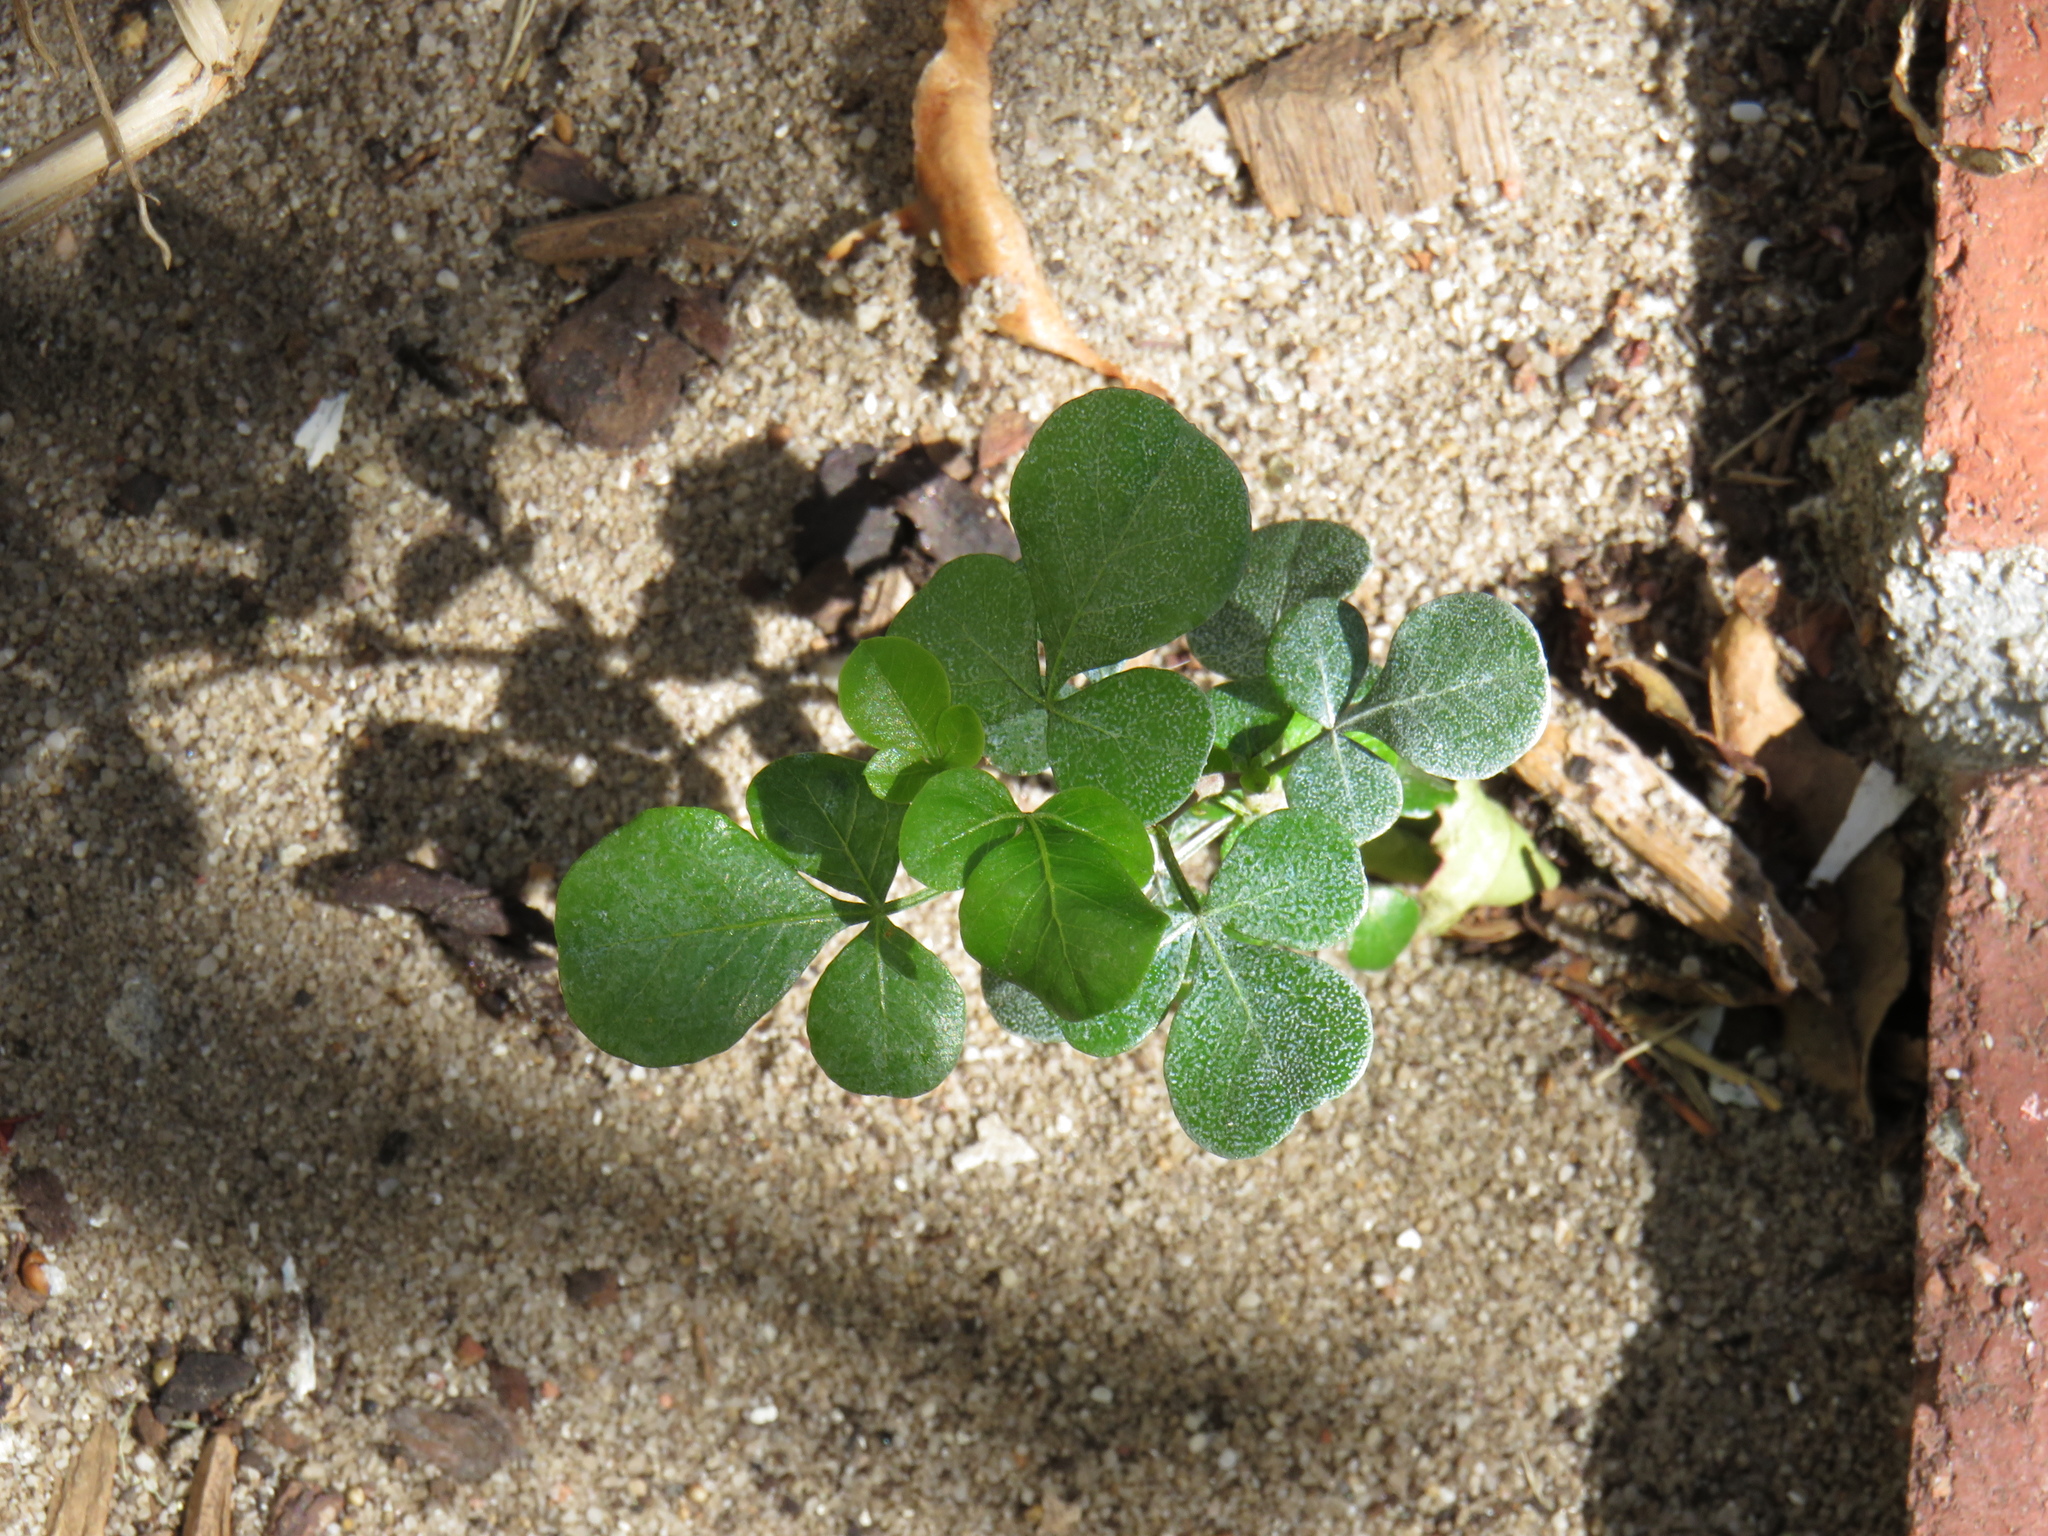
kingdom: Plantae
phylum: Tracheophyta
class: Magnoliopsida
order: Sapindales
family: Anacardiaceae
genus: Searsia
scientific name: Searsia lucida
